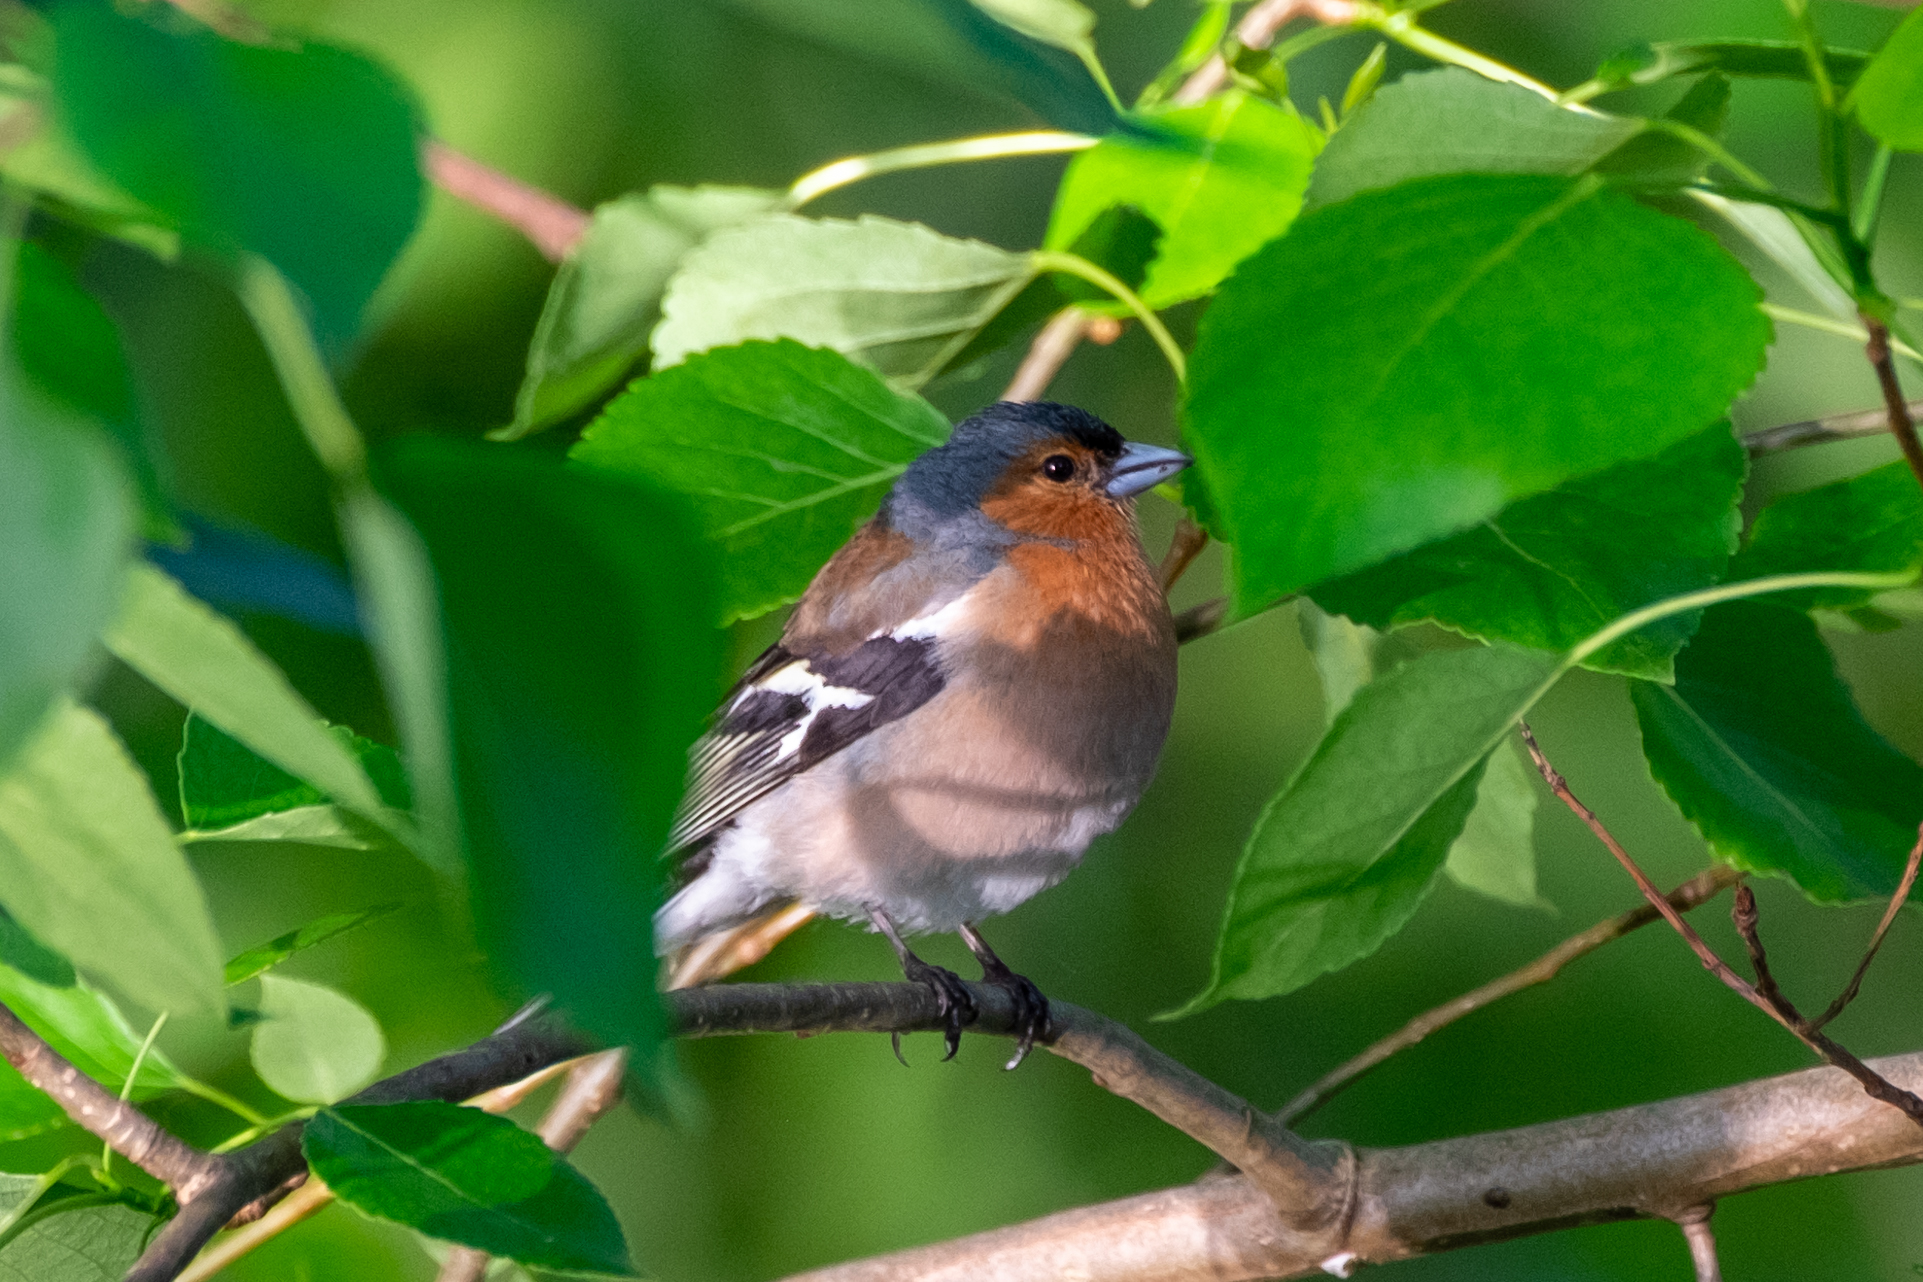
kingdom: Animalia
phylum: Chordata
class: Aves
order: Passeriformes
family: Fringillidae
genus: Fringilla
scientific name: Fringilla coelebs
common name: Common chaffinch
